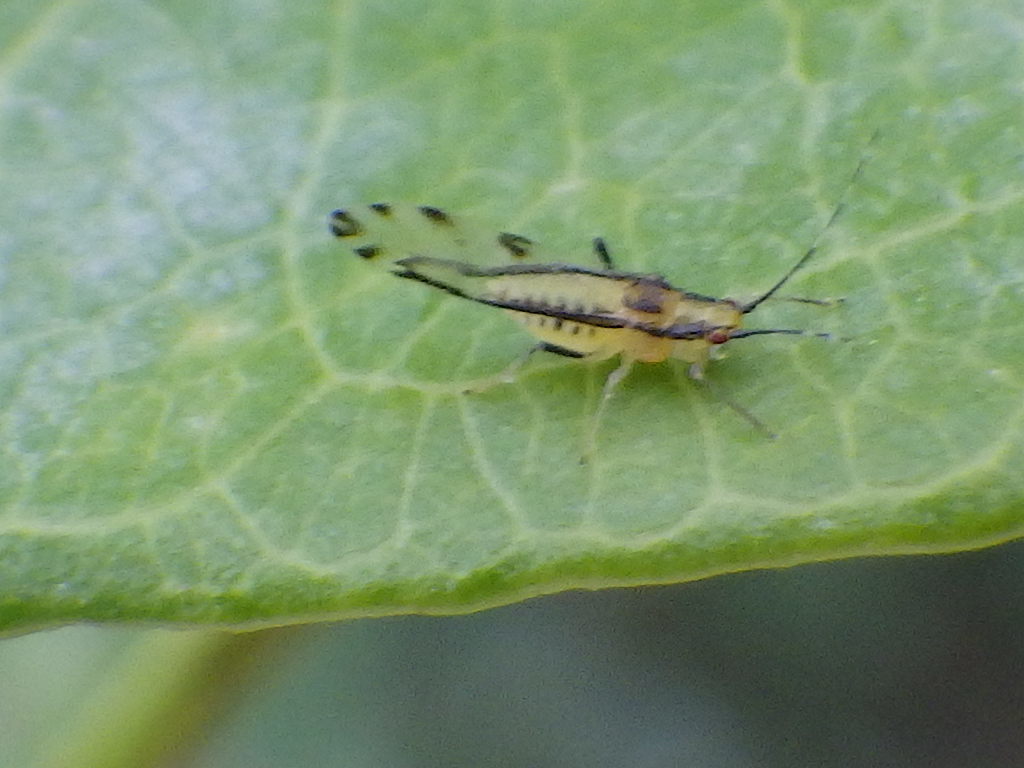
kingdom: Animalia
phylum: Arthropoda
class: Insecta
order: Hemiptera
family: Aphididae
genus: Eucallipterus
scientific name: Eucallipterus tiliae
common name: Aphid
